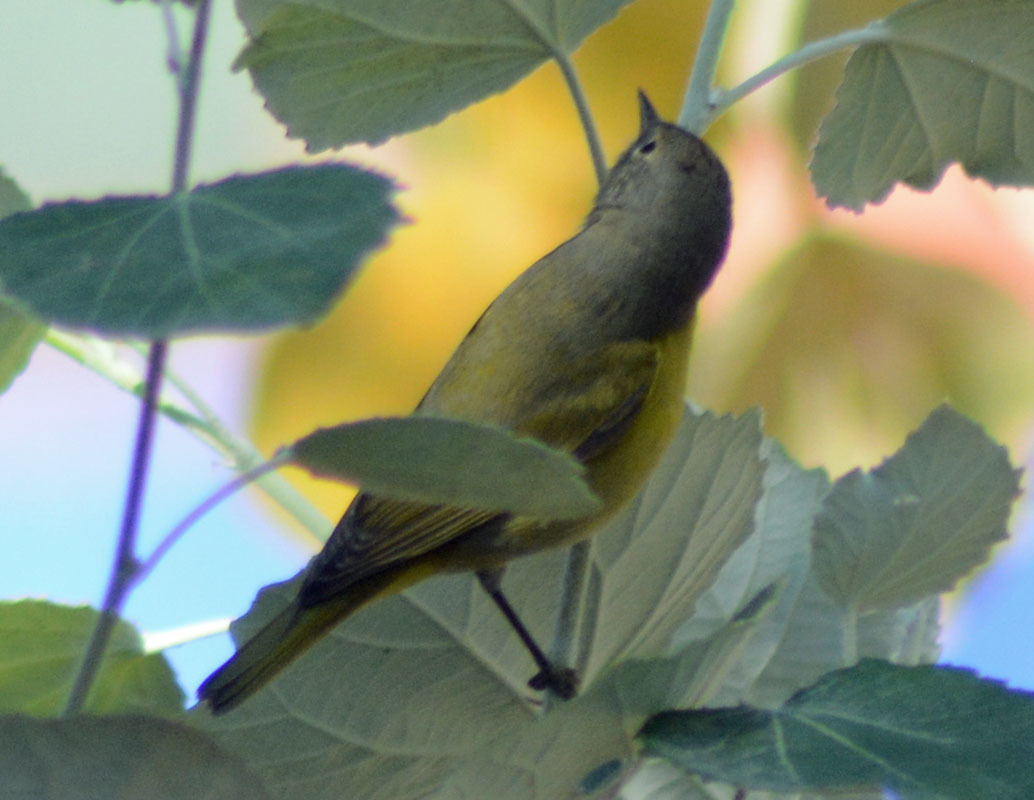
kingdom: Animalia
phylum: Chordata
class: Aves
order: Passeriformes
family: Parulidae
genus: Leiothlypis
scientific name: Leiothlypis ruficapilla
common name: Nashville warbler
